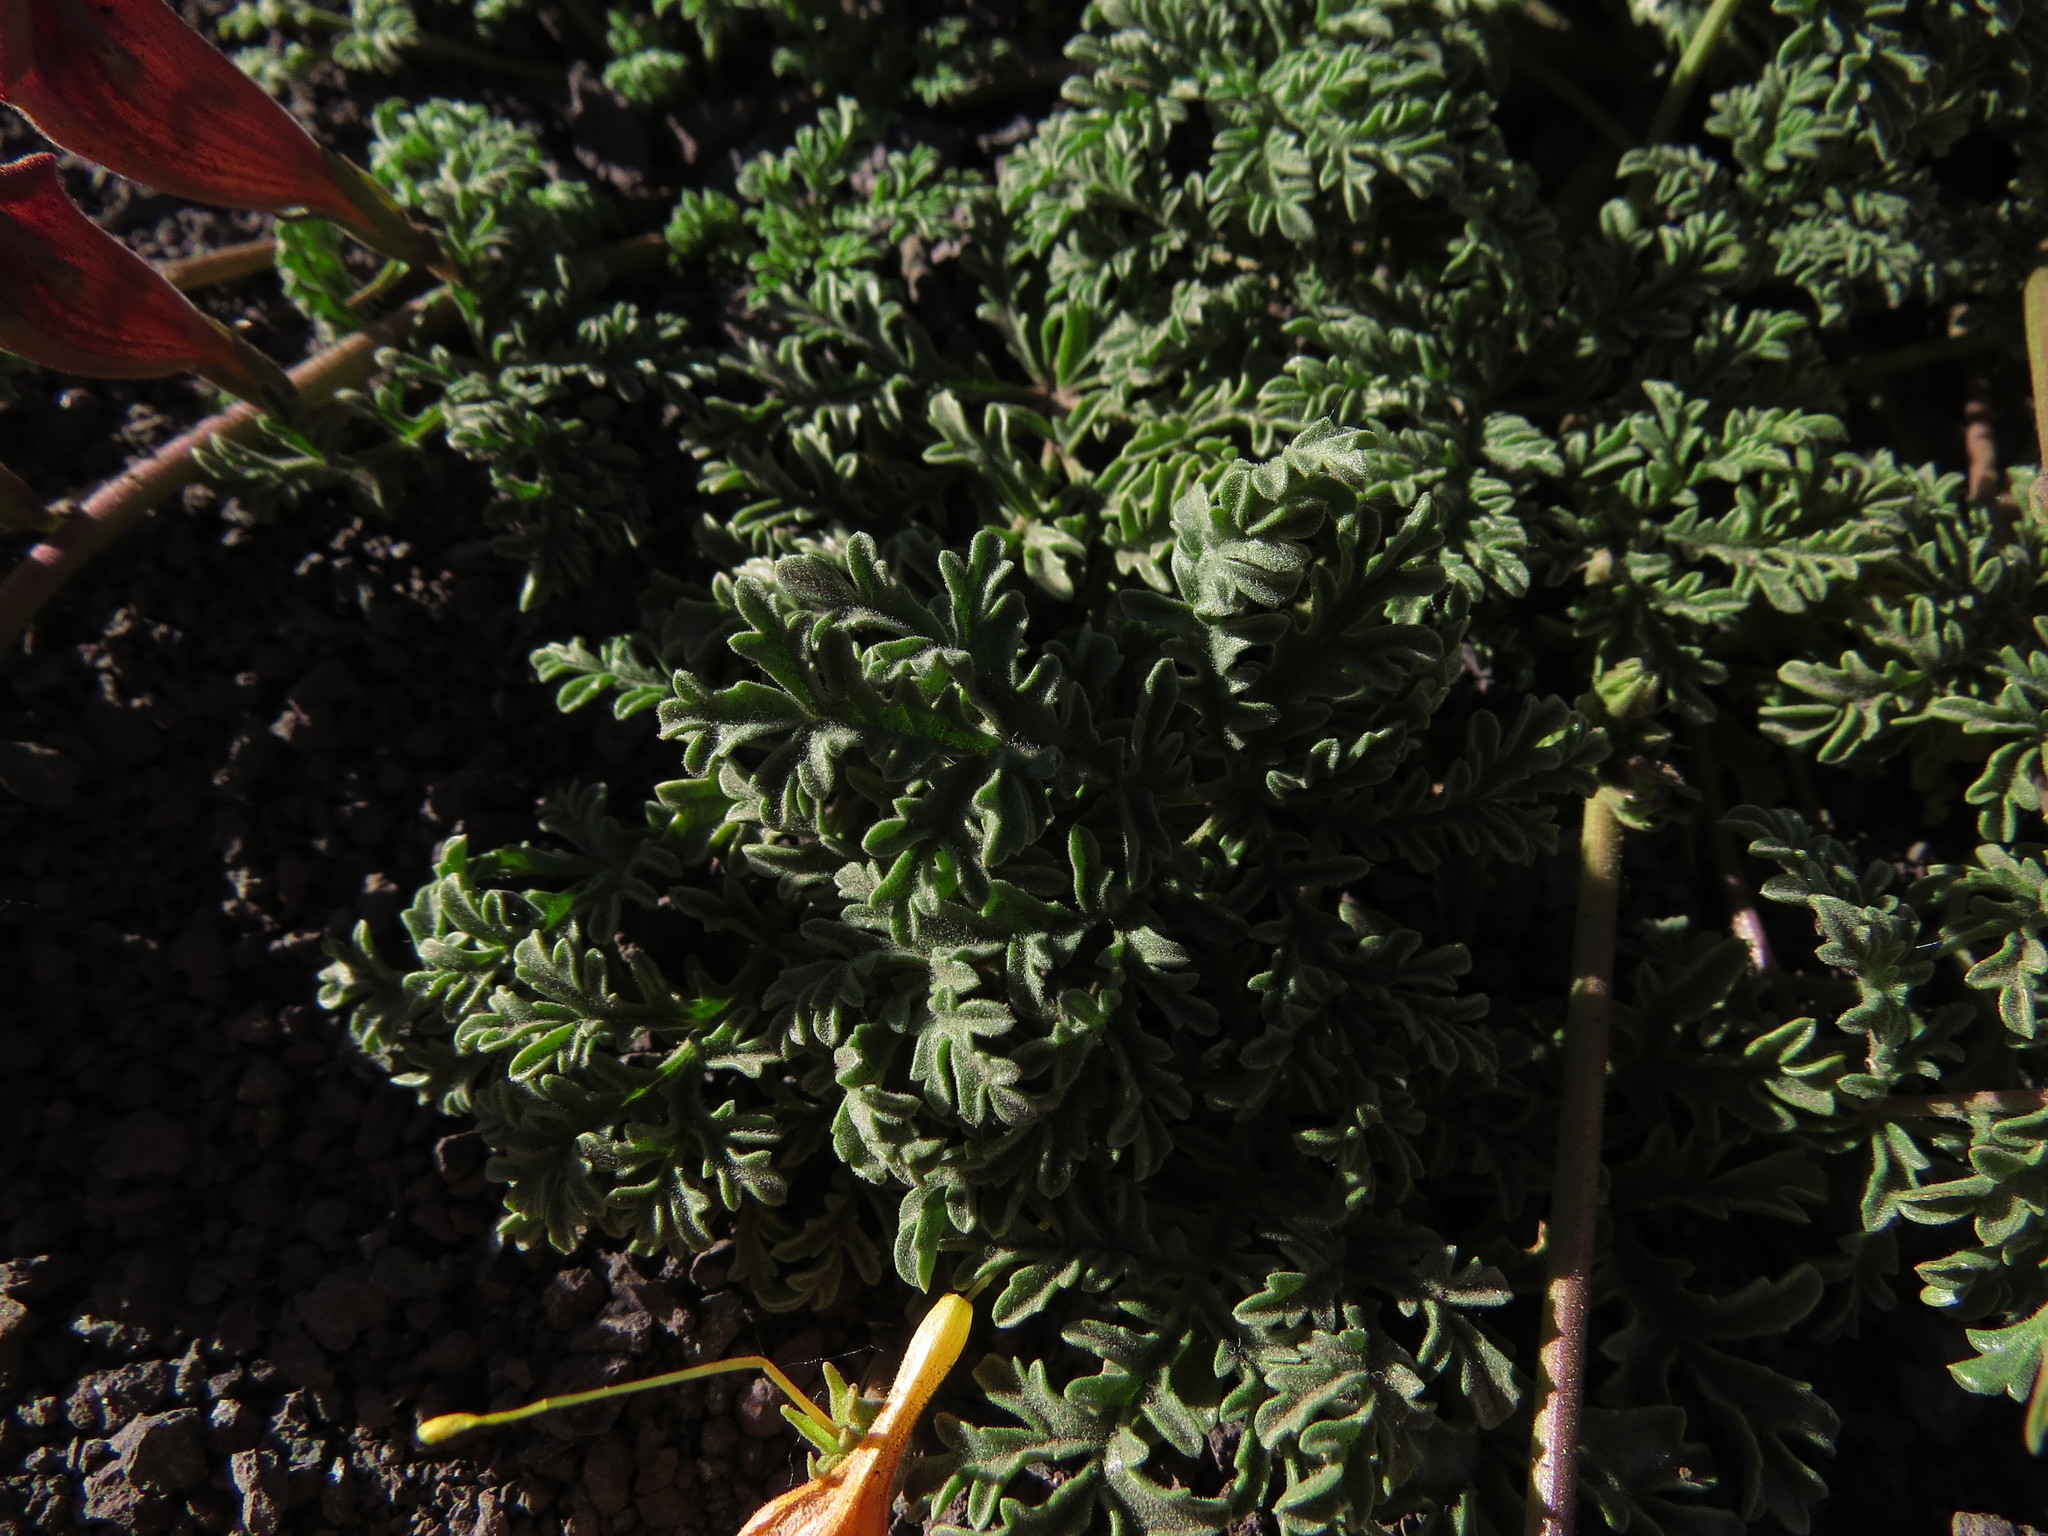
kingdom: Plantae
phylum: Tracheophyta
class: Magnoliopsida
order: Lamiales
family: Bignoniaceae
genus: Argylia
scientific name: Argylia adscendens
